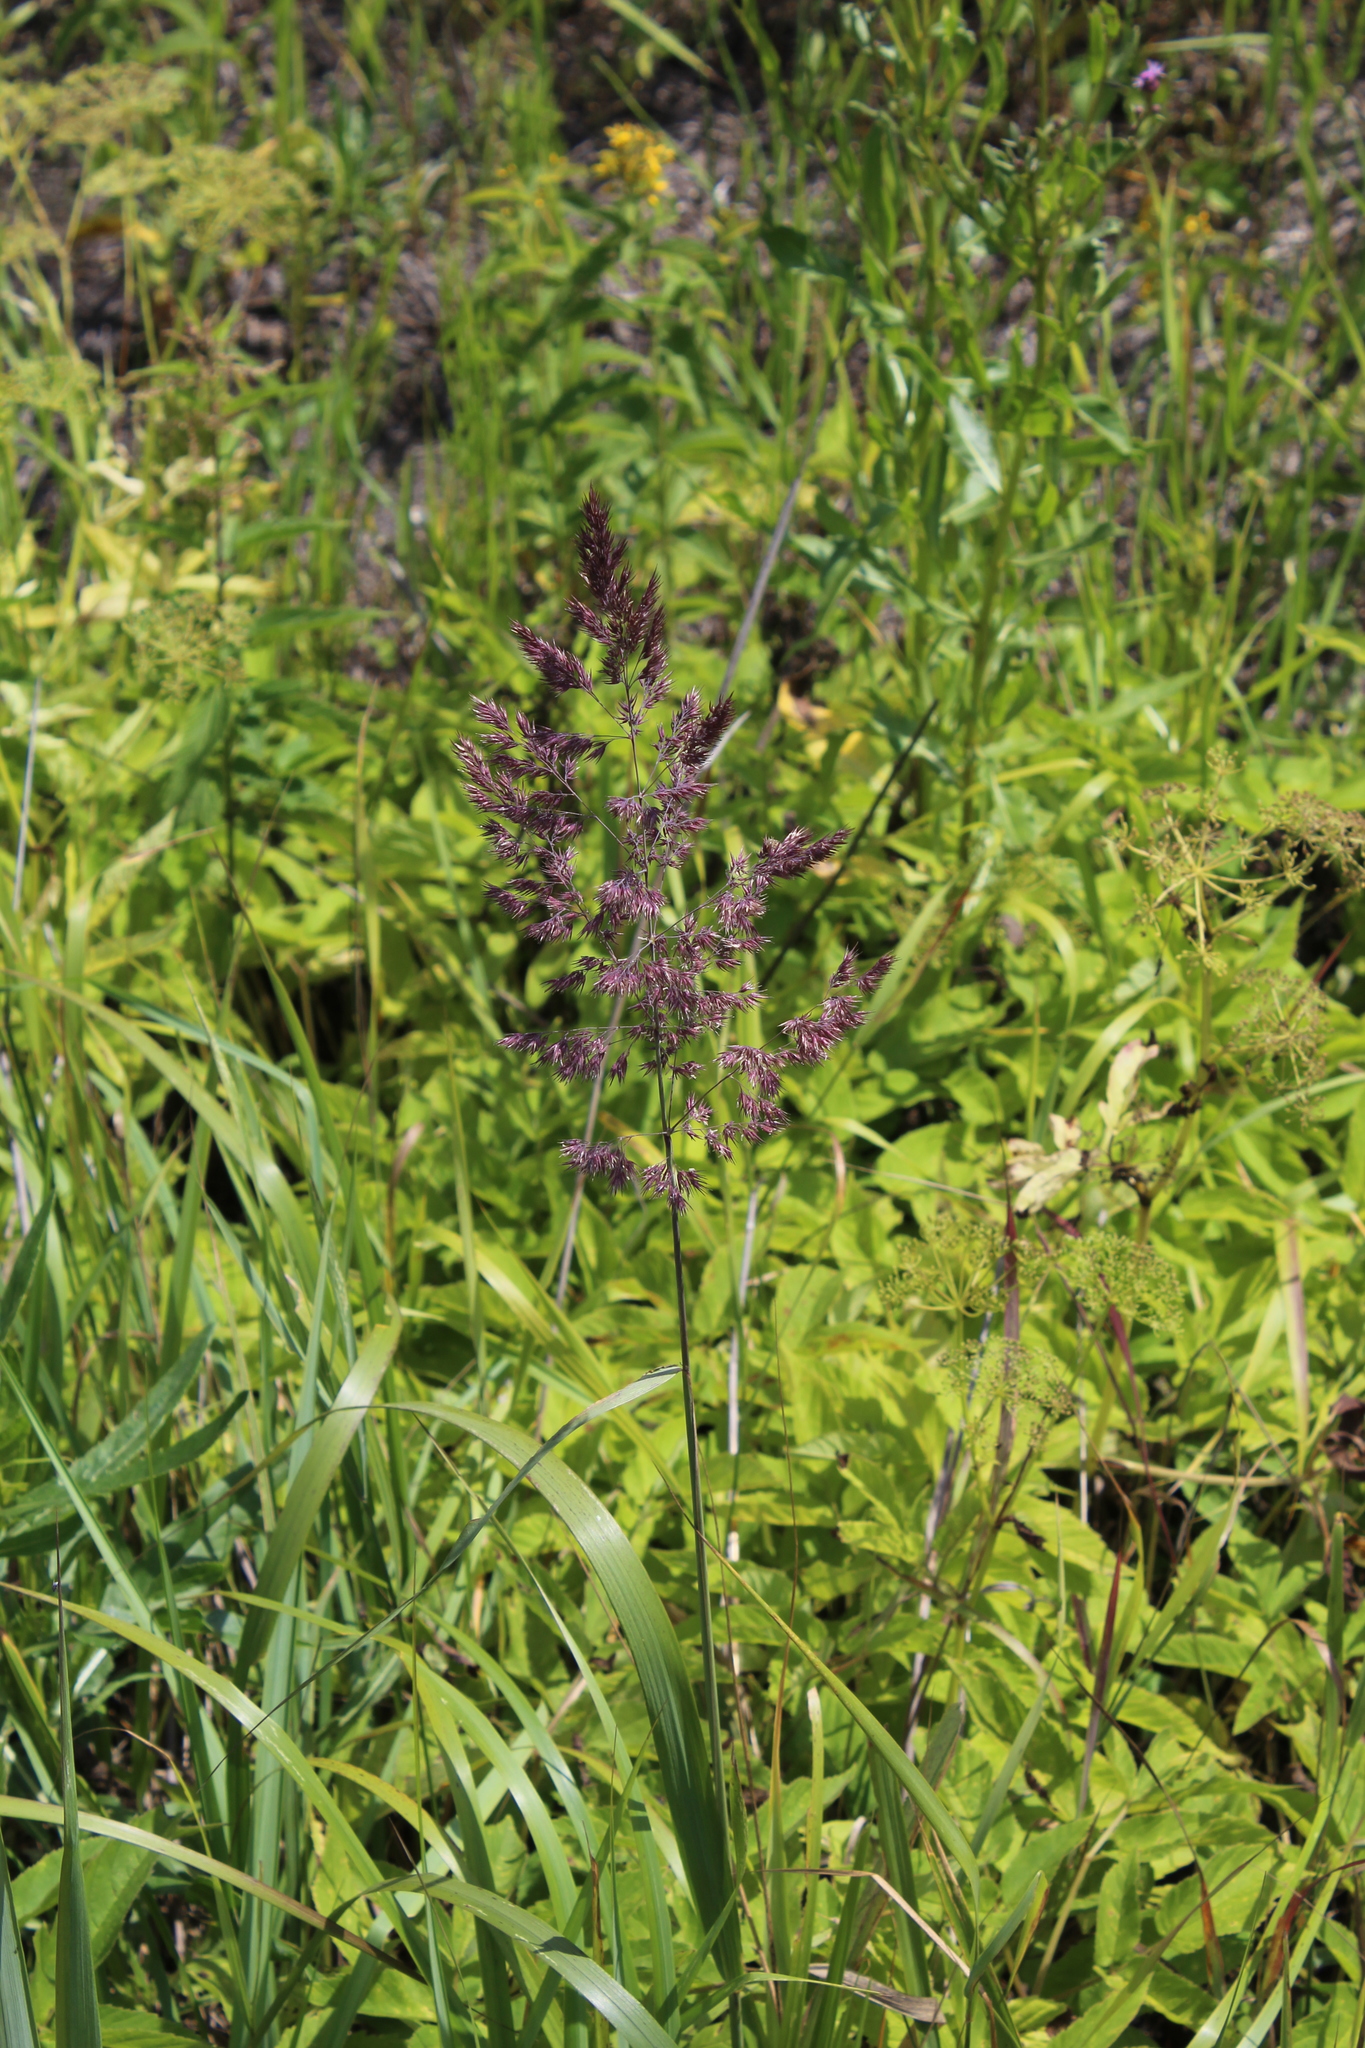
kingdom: Plantae
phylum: Tracheophyta
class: Liliopsida
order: Poales
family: Poaceae
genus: Calamagrostis
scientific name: Calamagrostis epigejos
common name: Wood small-reed
